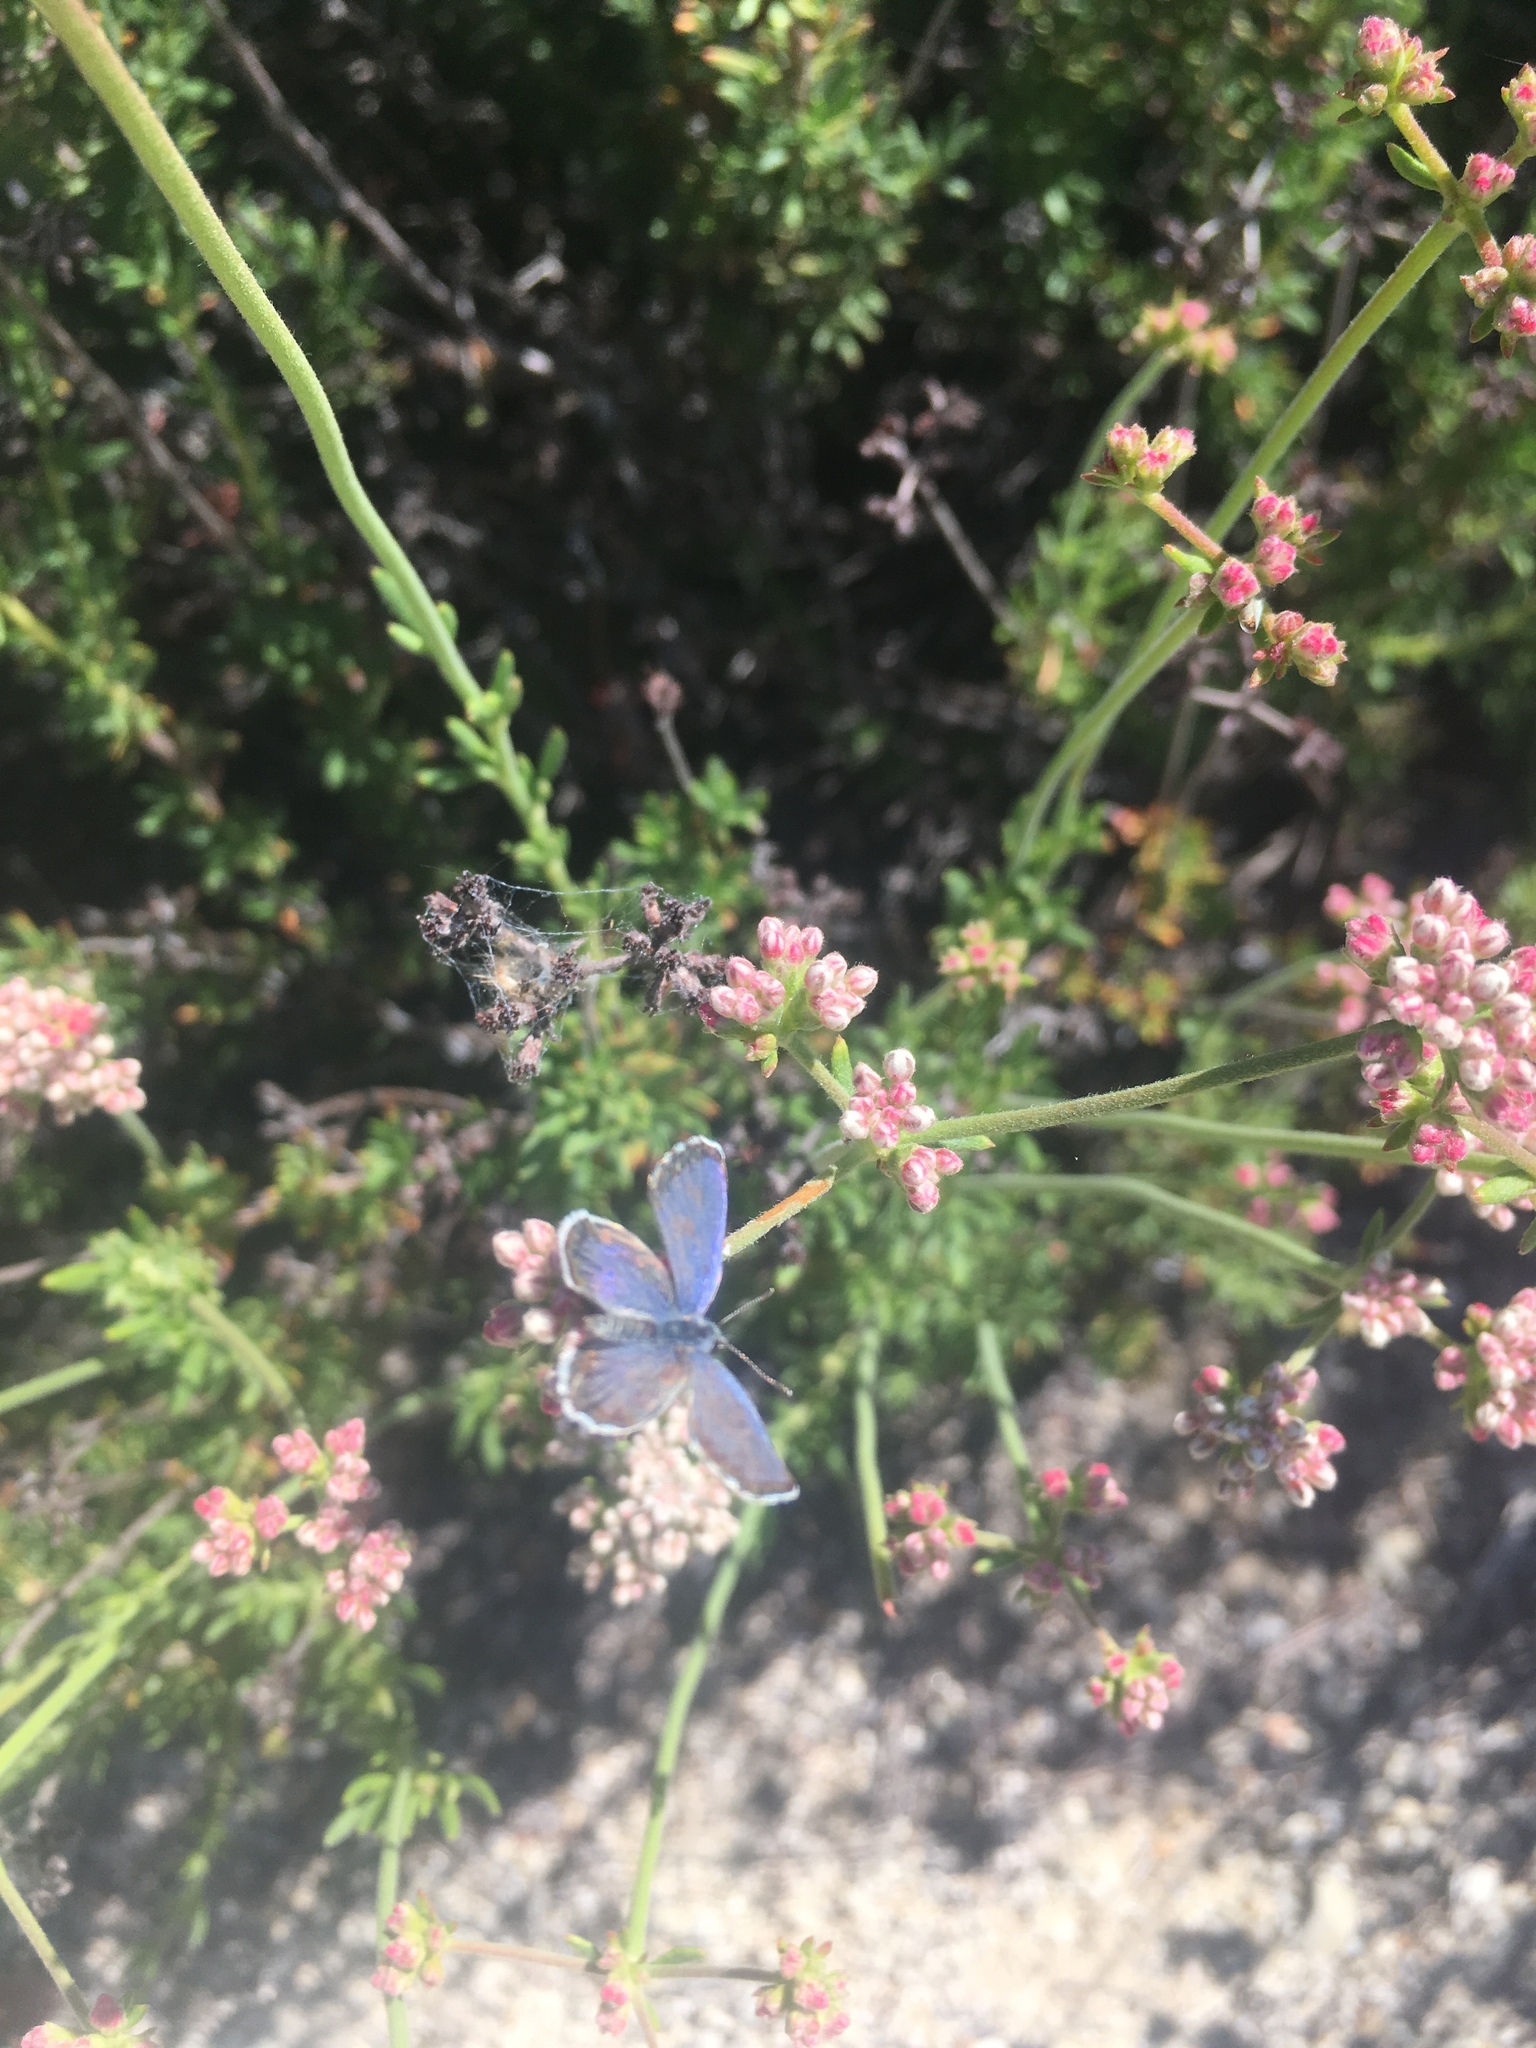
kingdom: Animalia
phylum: Arthropoda
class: Insecta
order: Lepidoptera
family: Lycaenidae
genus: Philotes
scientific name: Philotes bernardino
